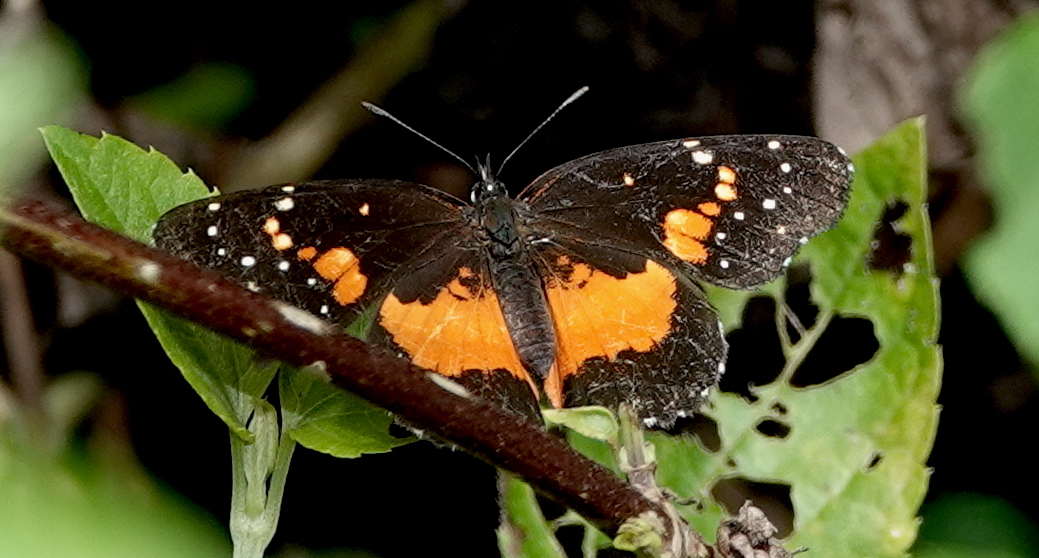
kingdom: Animalia
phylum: Arthropoda
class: Insecta
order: Lepidoptera
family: Nymphalidae
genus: Chlosyne
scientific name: Chlosyne lacinia
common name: Bordered patch
